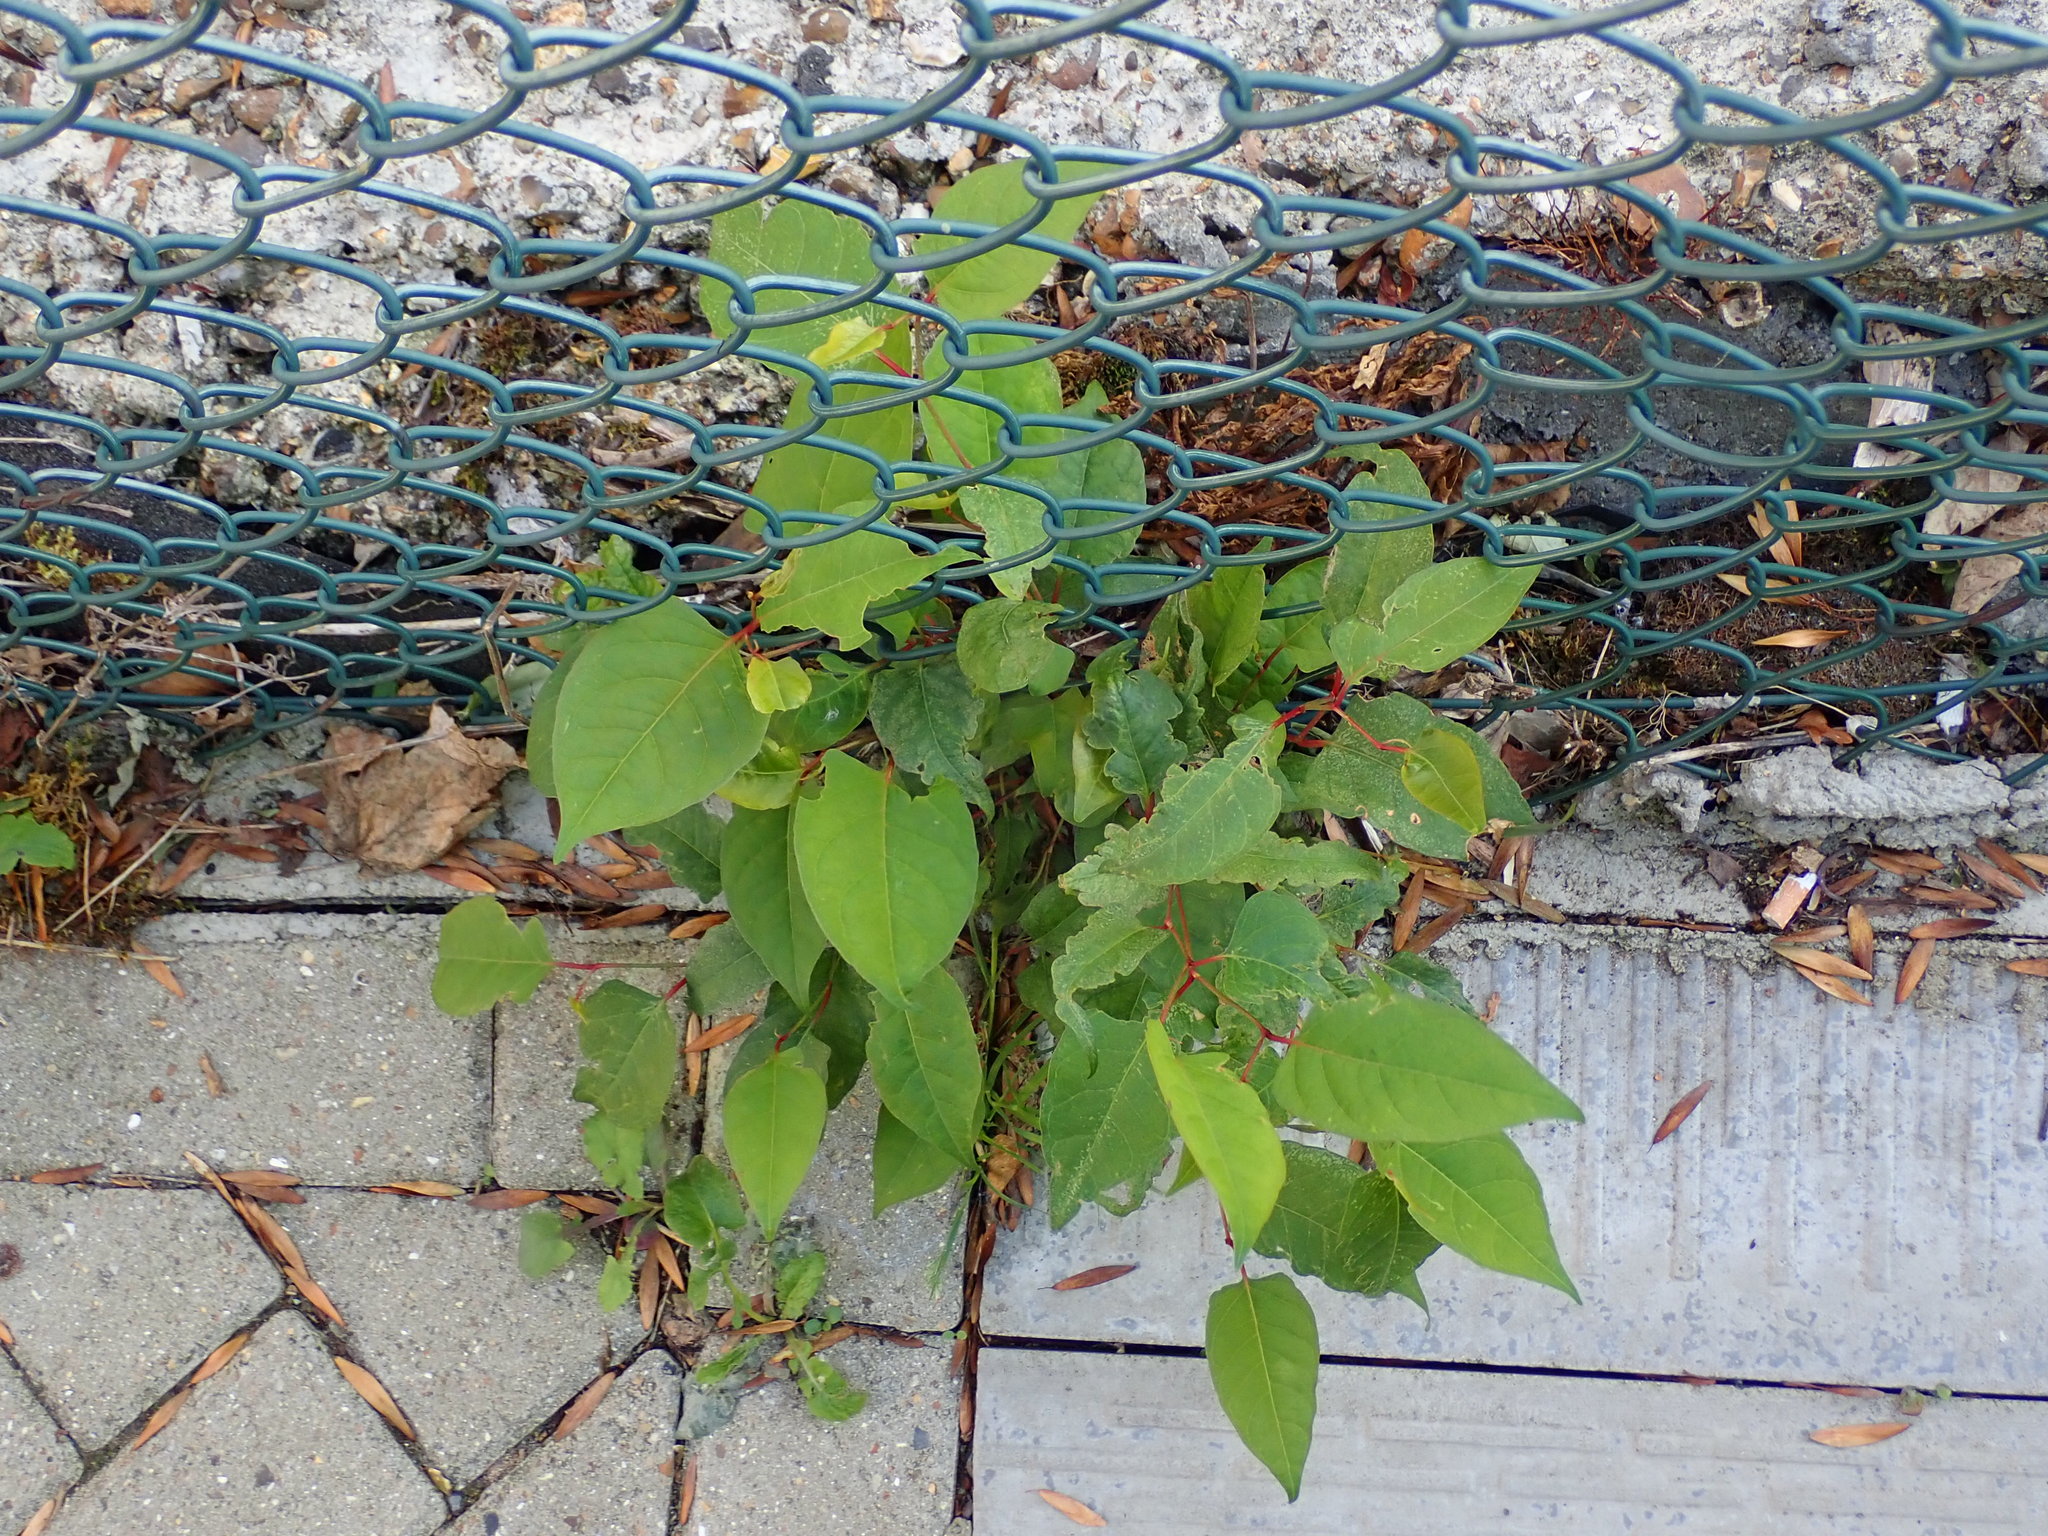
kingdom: Plantae
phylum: Tracheophyta
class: Magnoliopsida
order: Caryophyllales
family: Polygonaceae
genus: Reynoutria
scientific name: Reynoutria japonica
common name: Japanese knotweed
